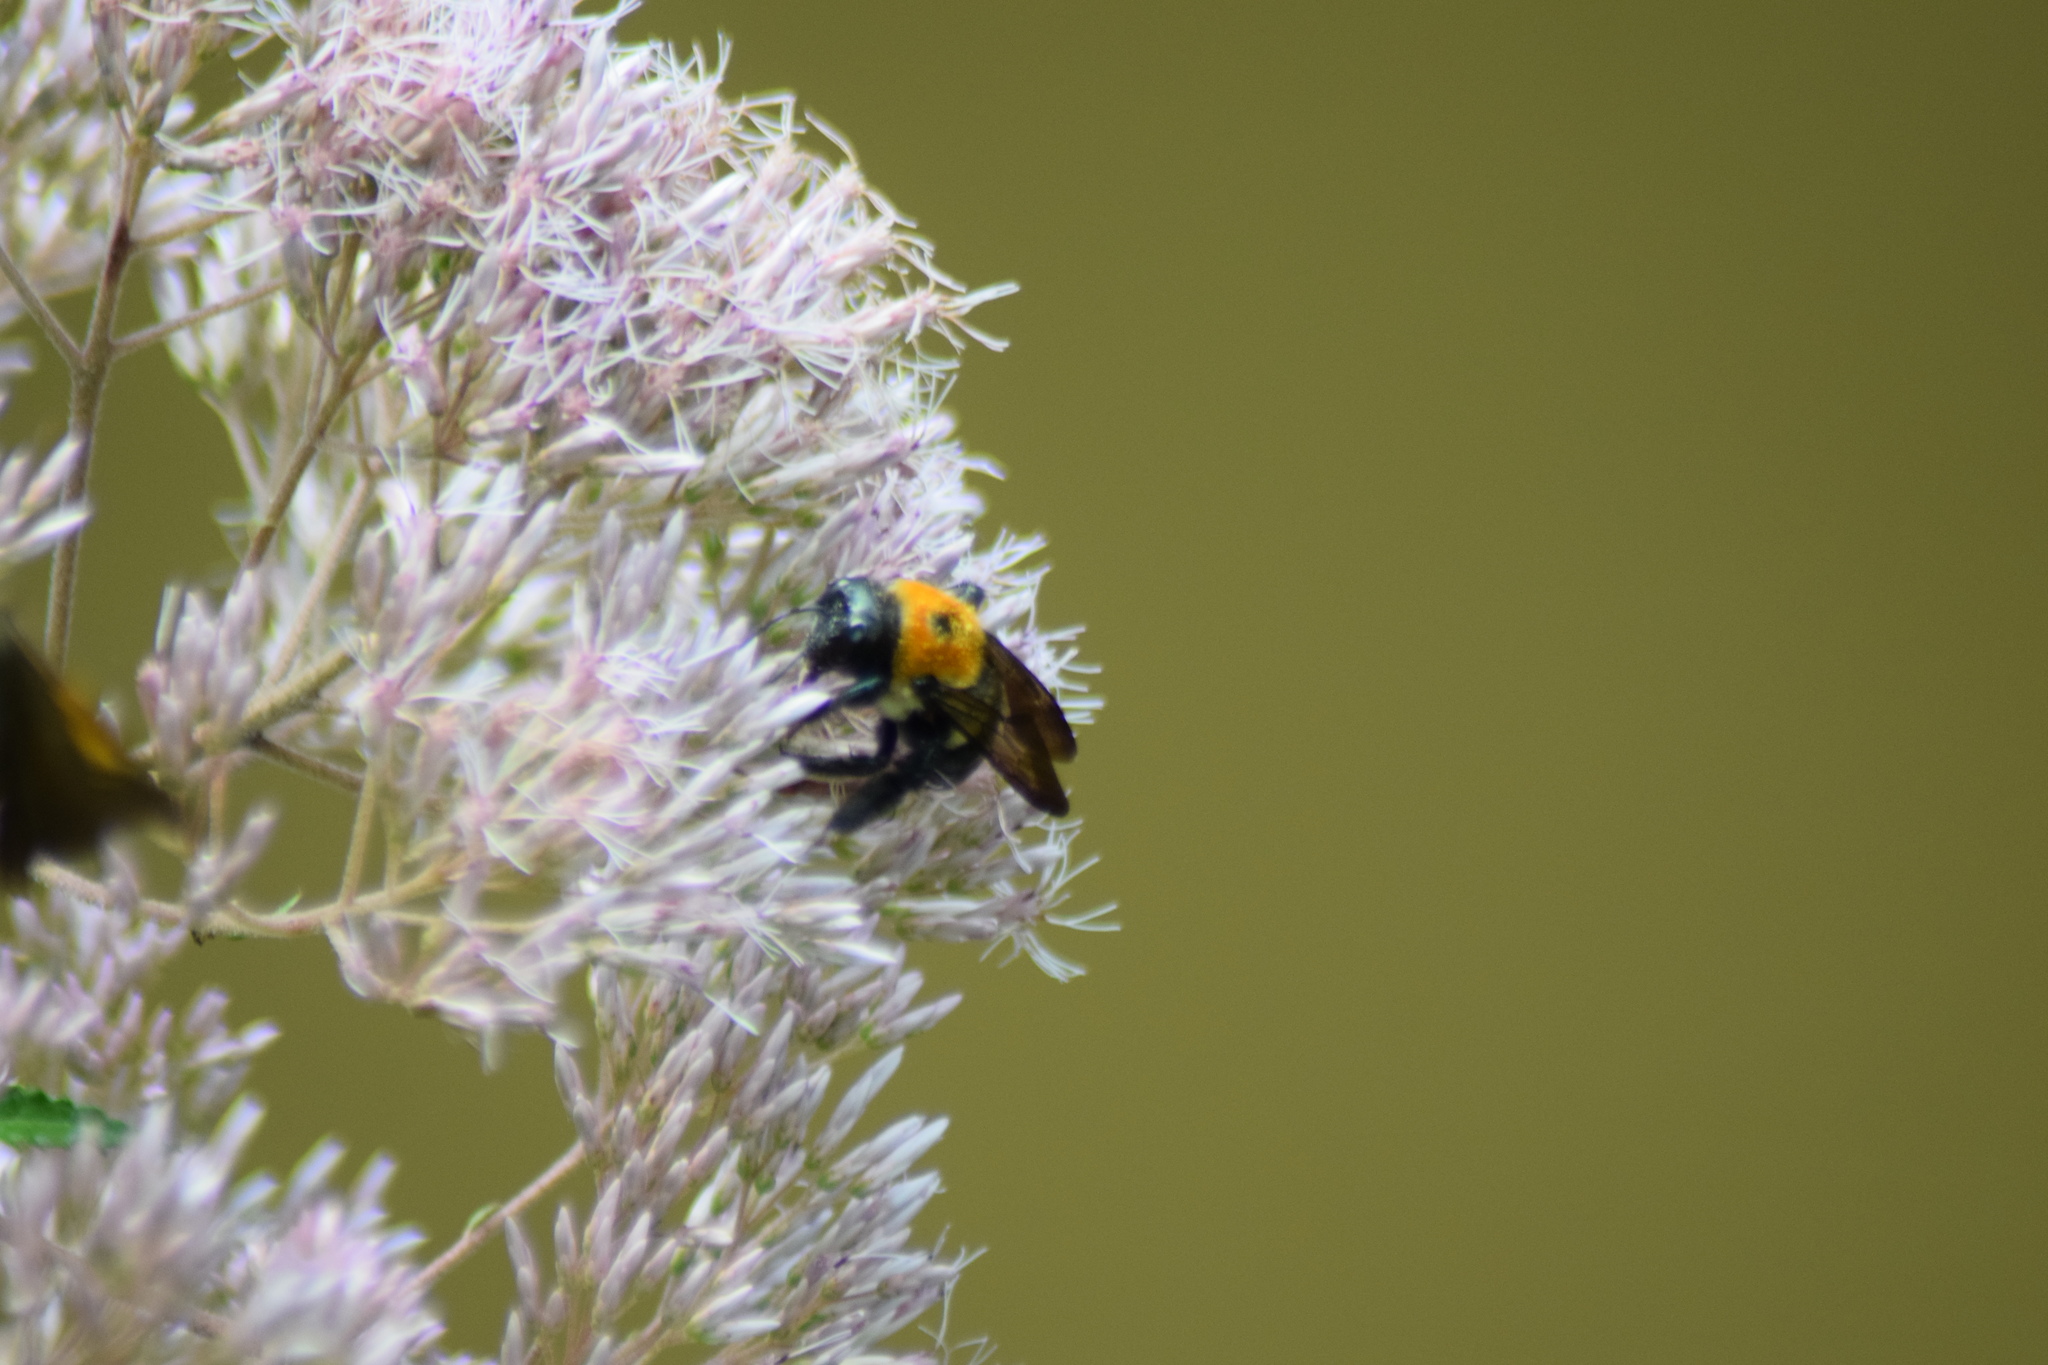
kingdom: Animalia
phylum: Arthropoda
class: Insecta
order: Hymenoptera
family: Apidae
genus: Xylocopa
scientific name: Xylocopa virginica
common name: Carpenter bee
